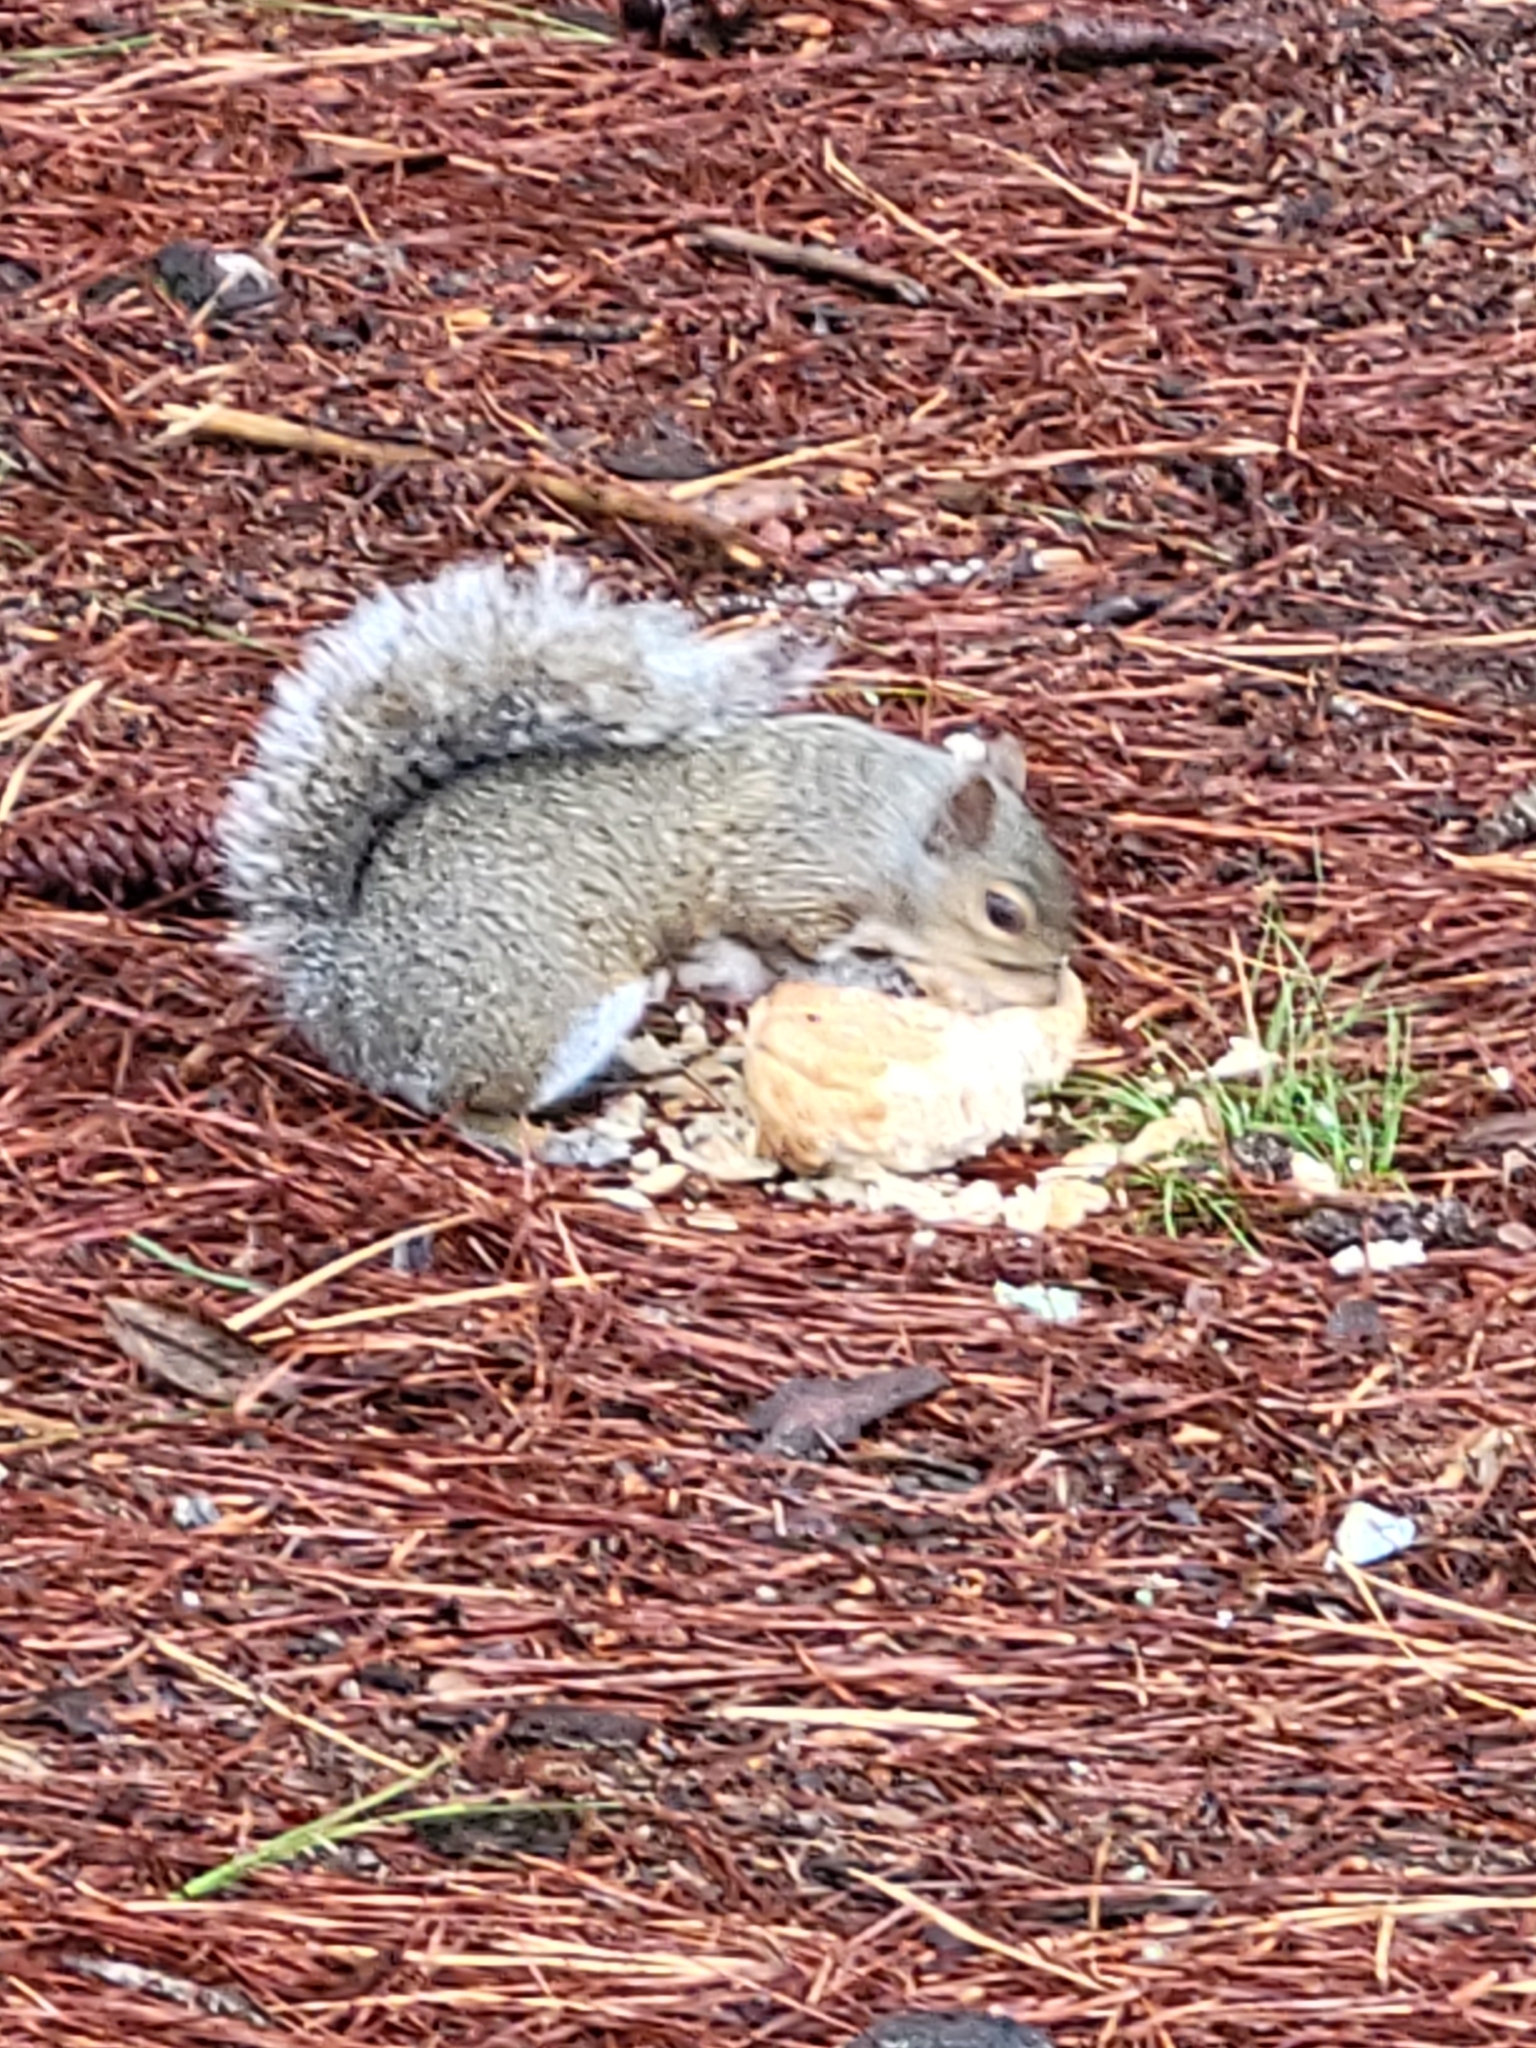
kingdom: Animalia
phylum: Chordata
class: Mammalia
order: Rodentia
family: Sciuridae
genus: Sciurus
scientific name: Sciurus carolinensis
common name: Eastern gray squirrel
